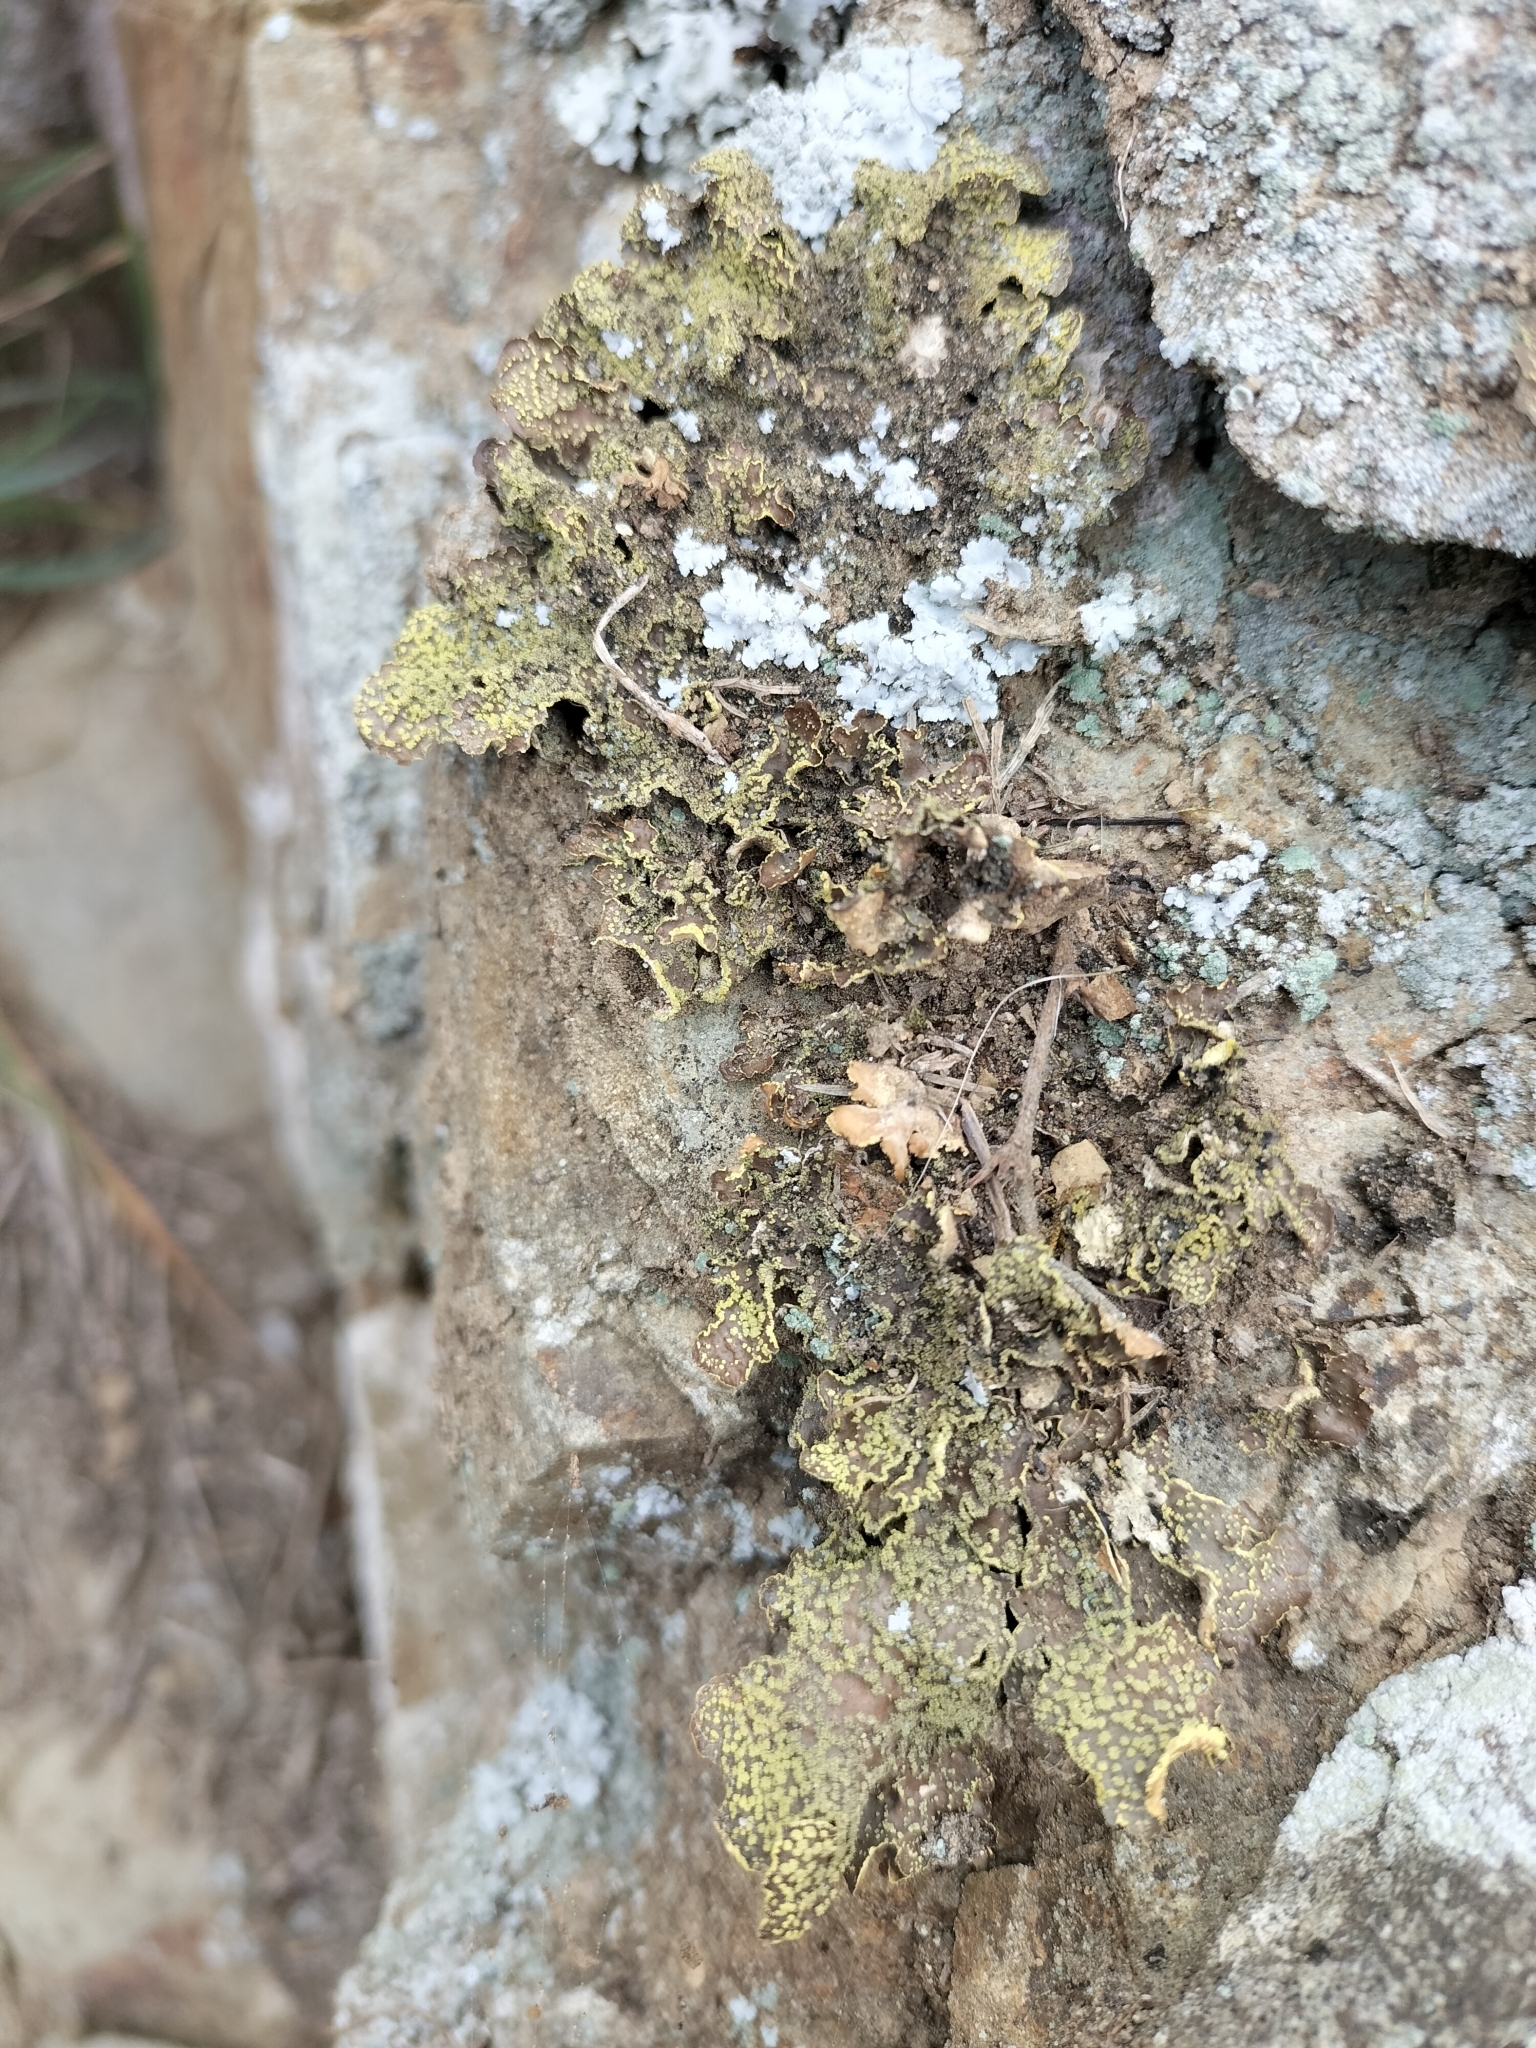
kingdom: Fungi
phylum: Ascomycota
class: Lecanoromycetes
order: Peltigerales
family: Lobariaceae
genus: Pseudocyphellaria
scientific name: Pseudocyphellaria crocata
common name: Golden specklebelly
